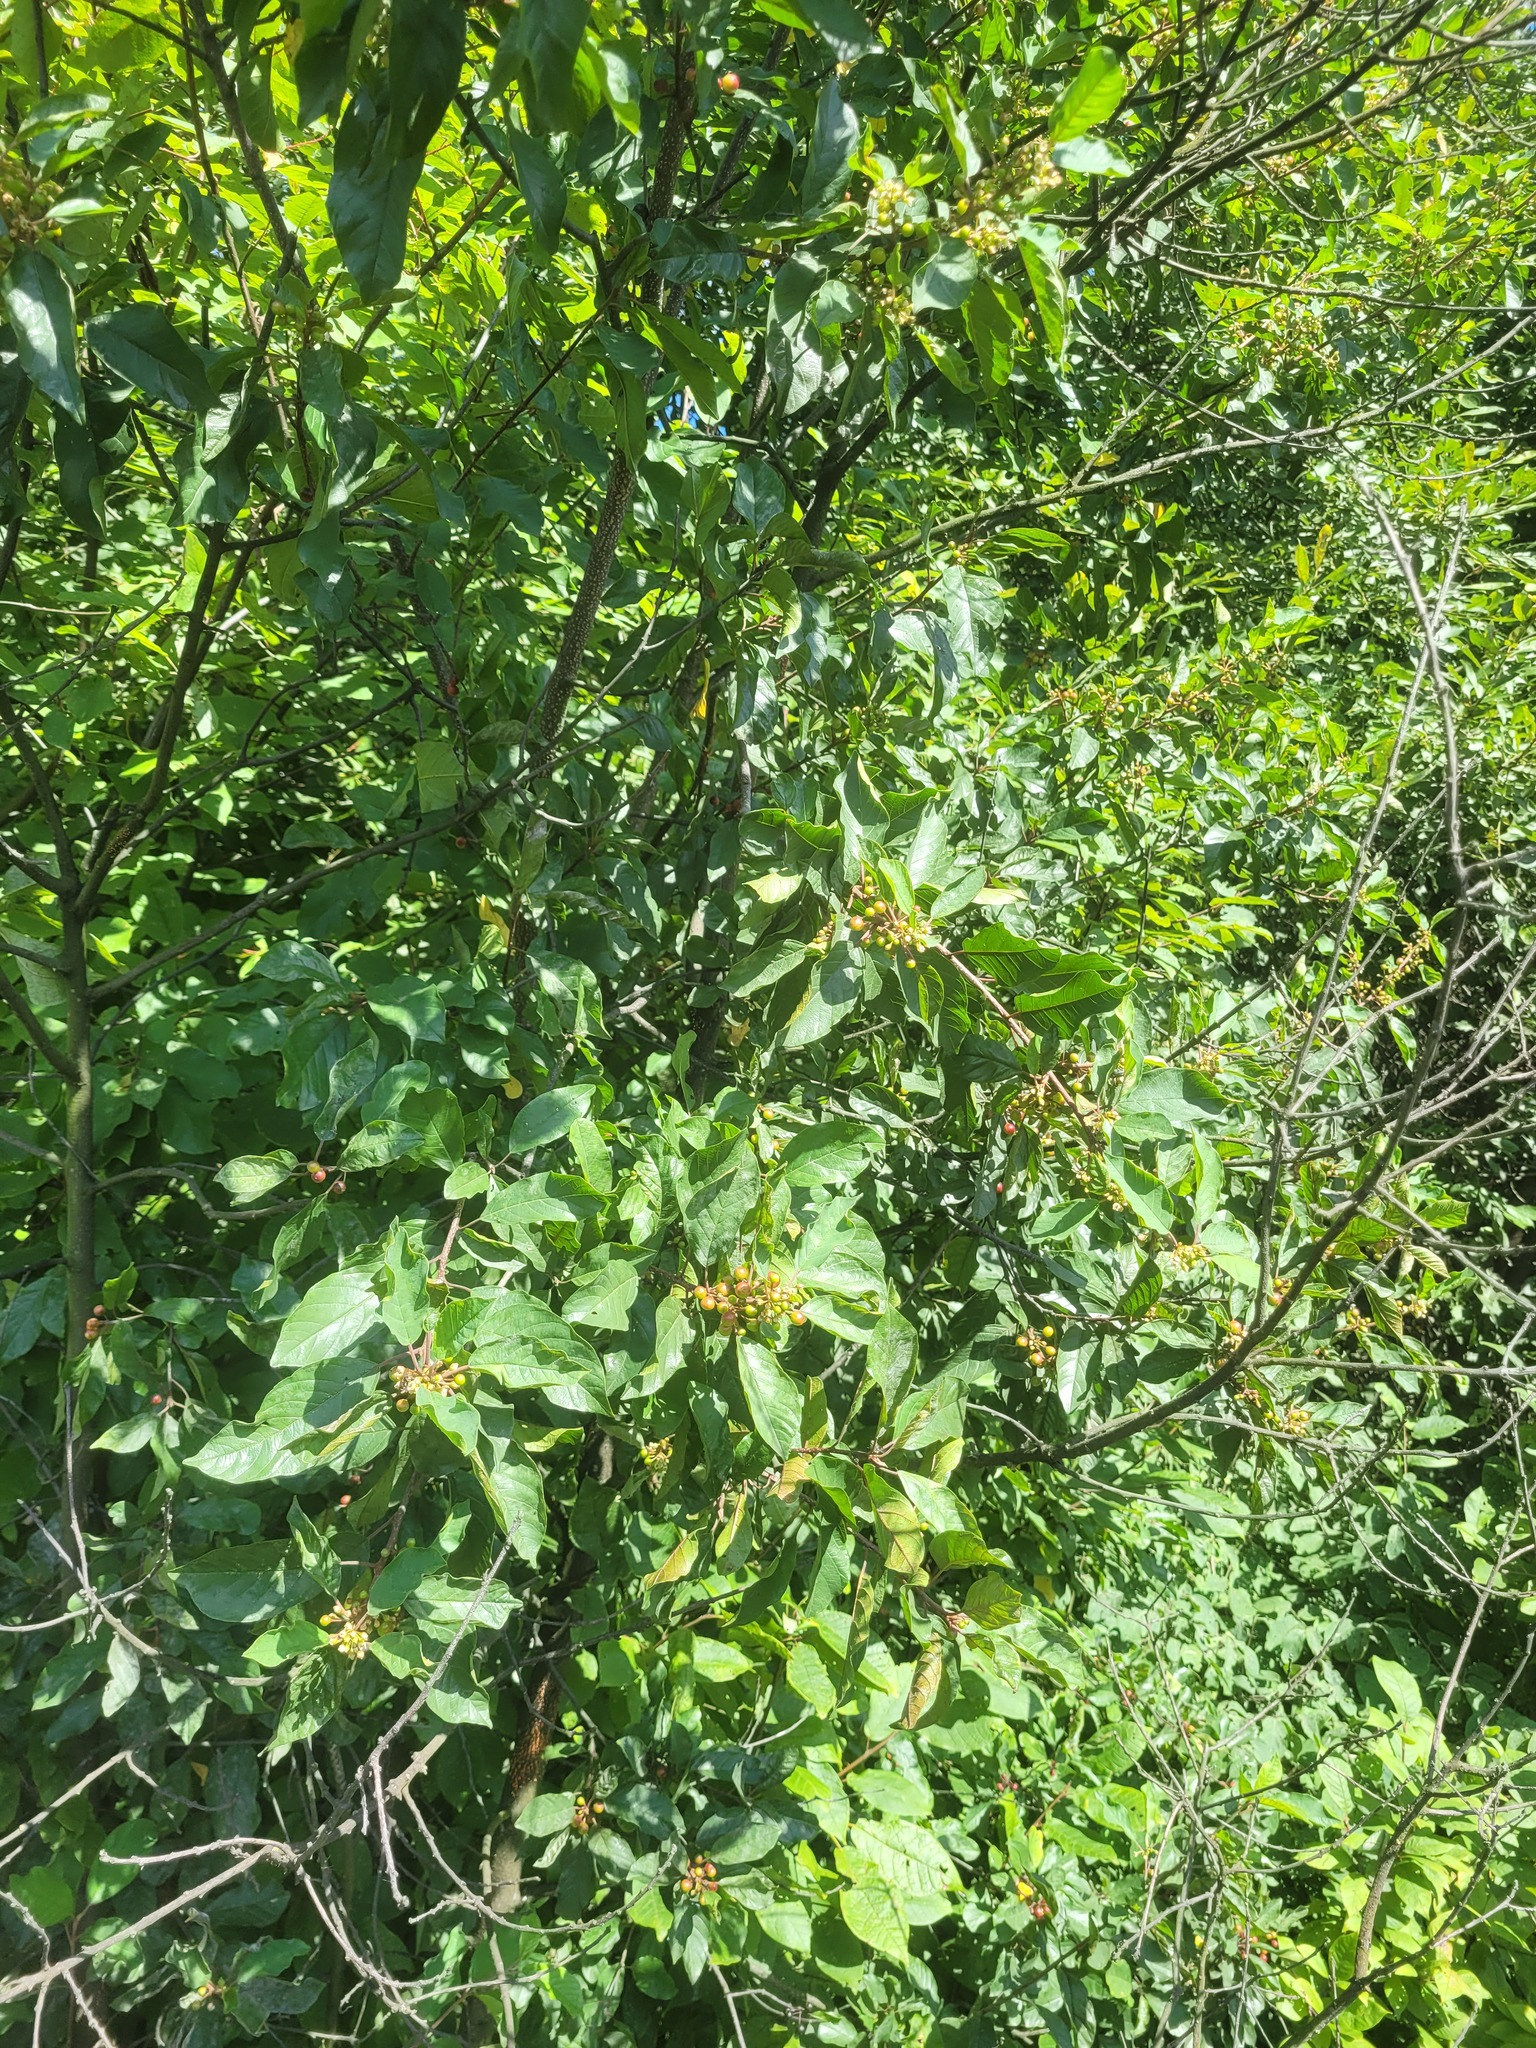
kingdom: Plantae
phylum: Tracheophyta
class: Magnoliopsida
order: Rosales
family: Rhamnaceae
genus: Frangula
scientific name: Frangula alnus
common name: Alder buckthorn
